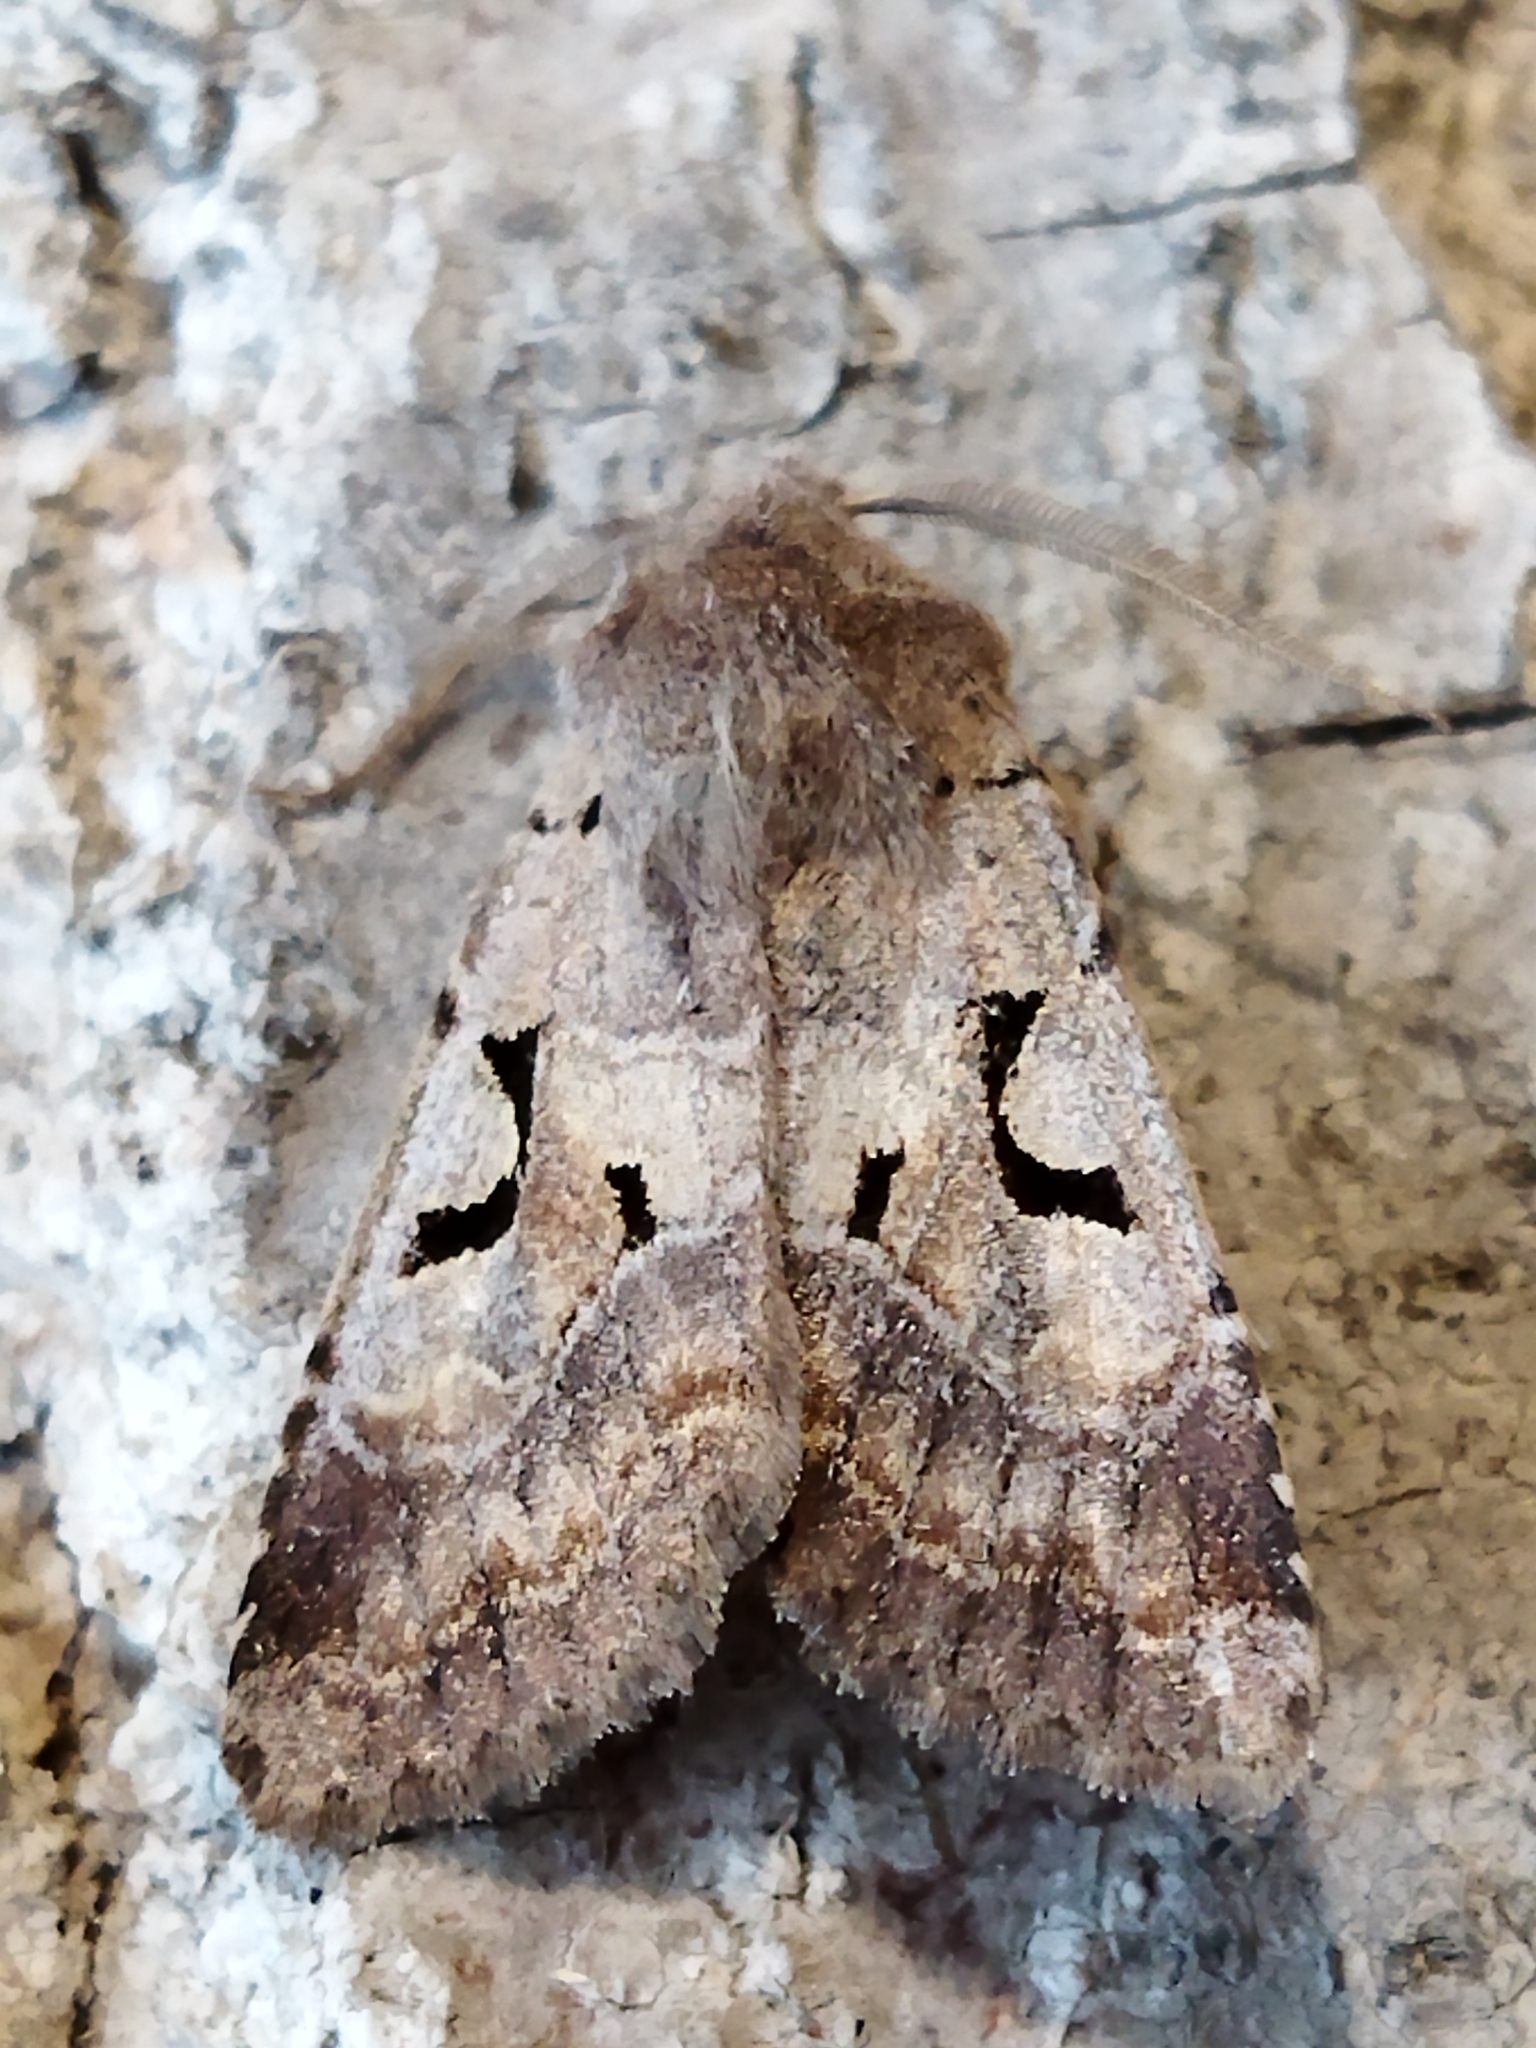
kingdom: Animalia
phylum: Arthropoda
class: Insecta
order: Lepidoptera
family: Noctuidae
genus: Orthosia
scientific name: Orthosia gothica
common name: Hebrew character
